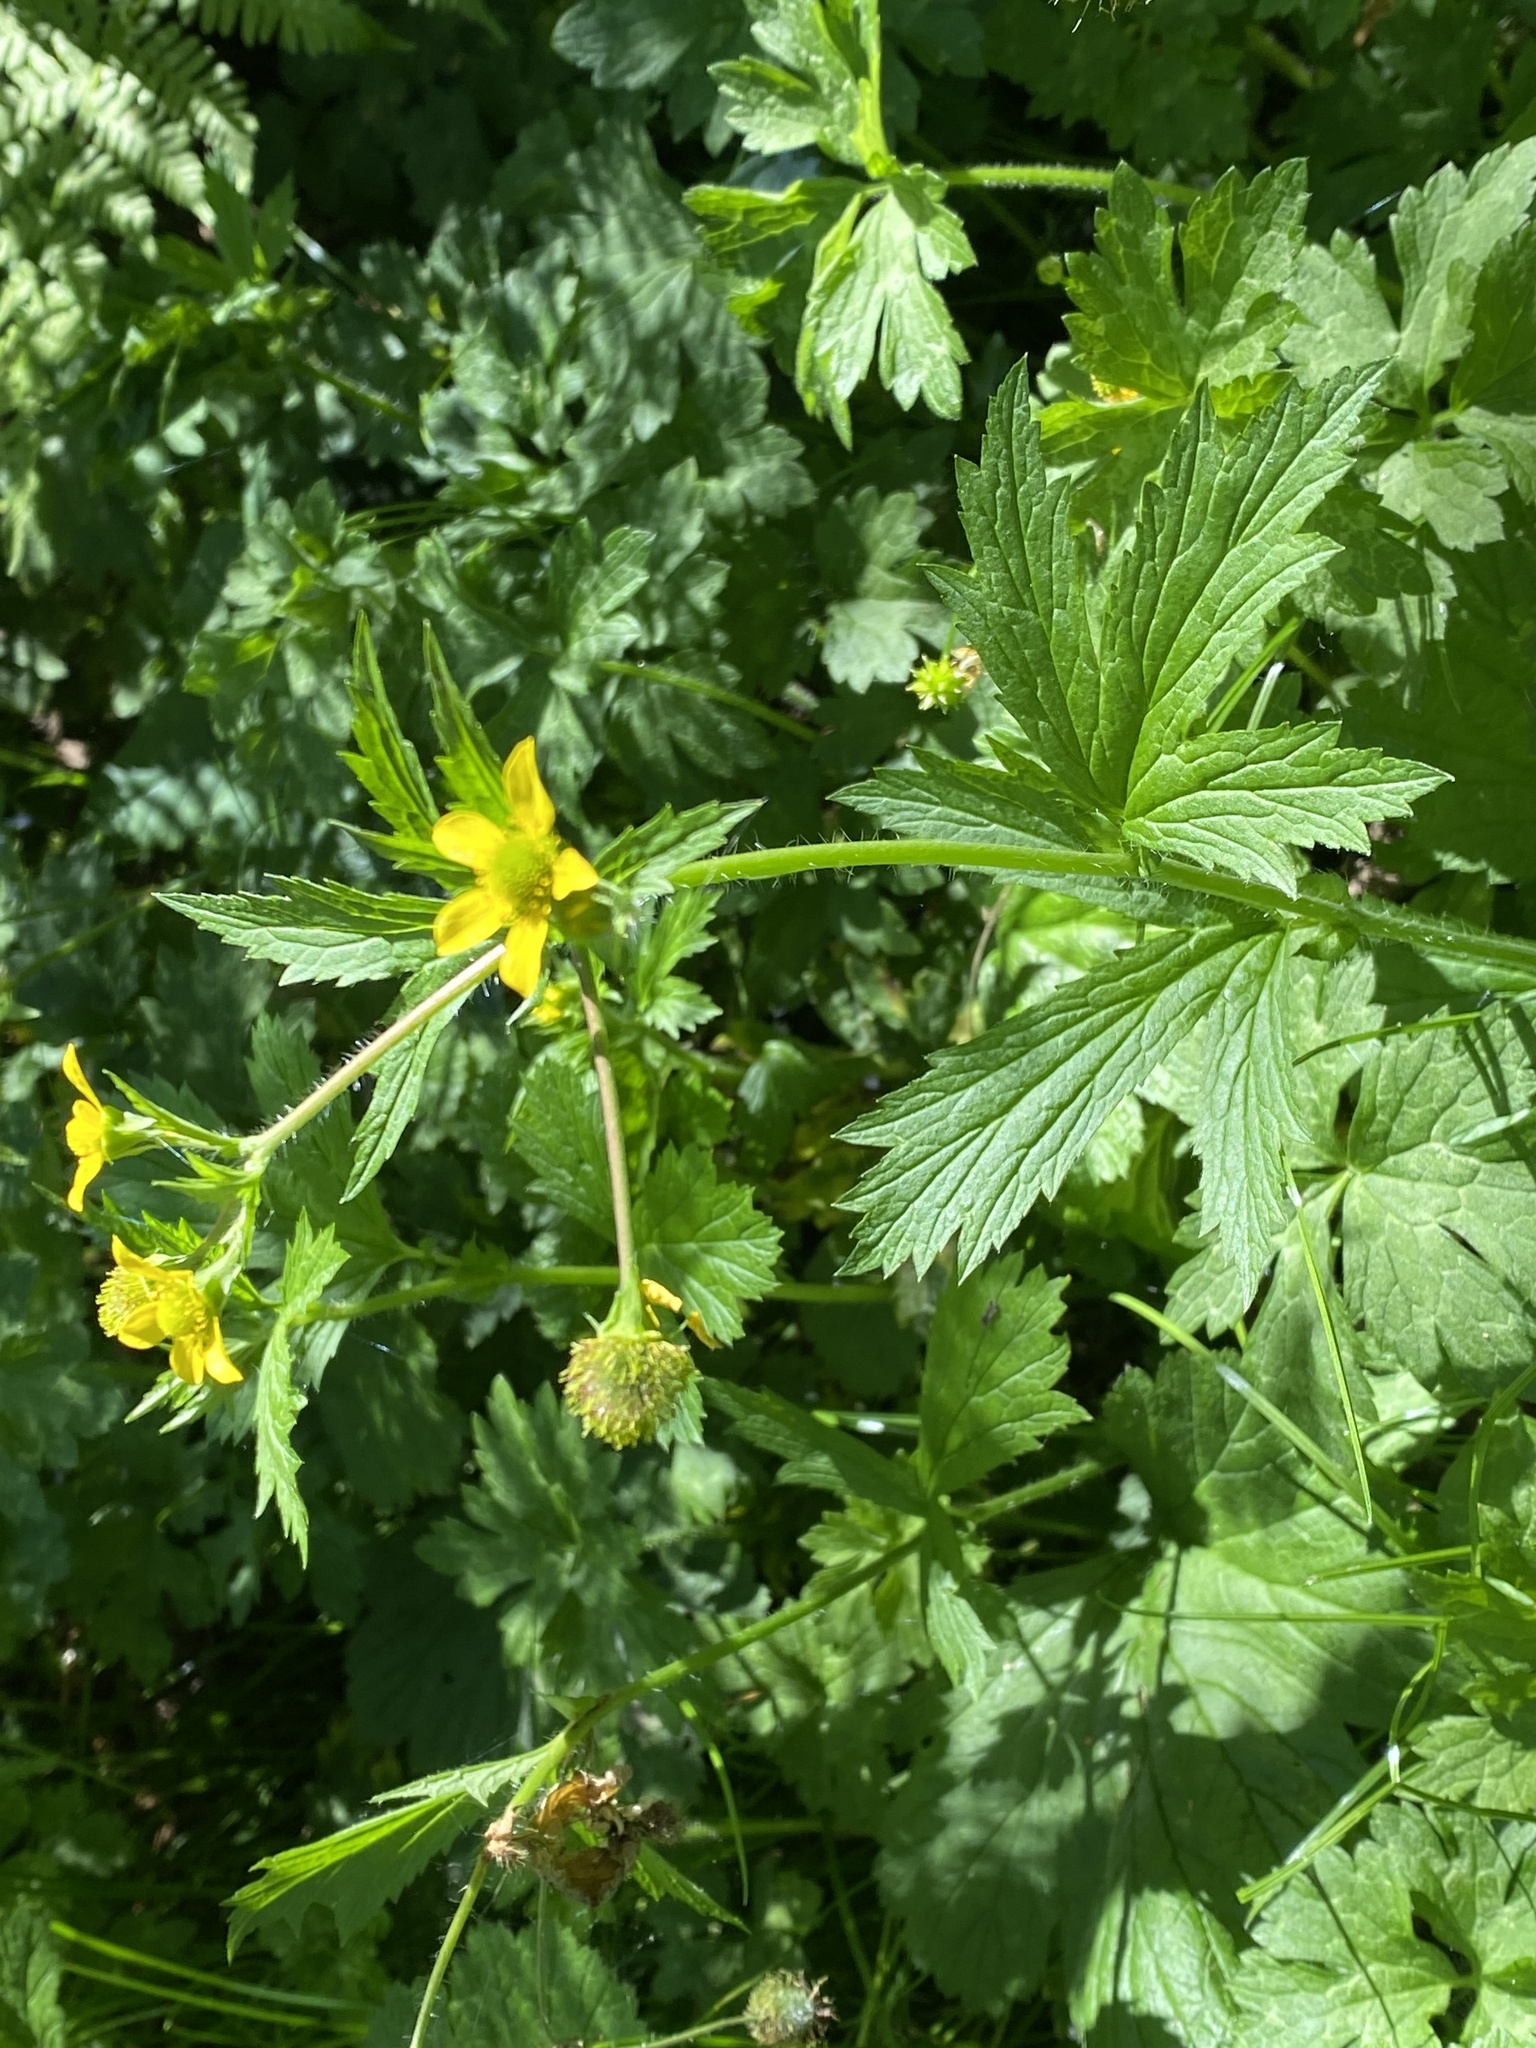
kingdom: Plantae
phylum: Tracheophyta
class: Magnoliopsida
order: Rosales
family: Rosaceae
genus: Geum
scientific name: Geum macrophyllum
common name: Large-leaved avens
